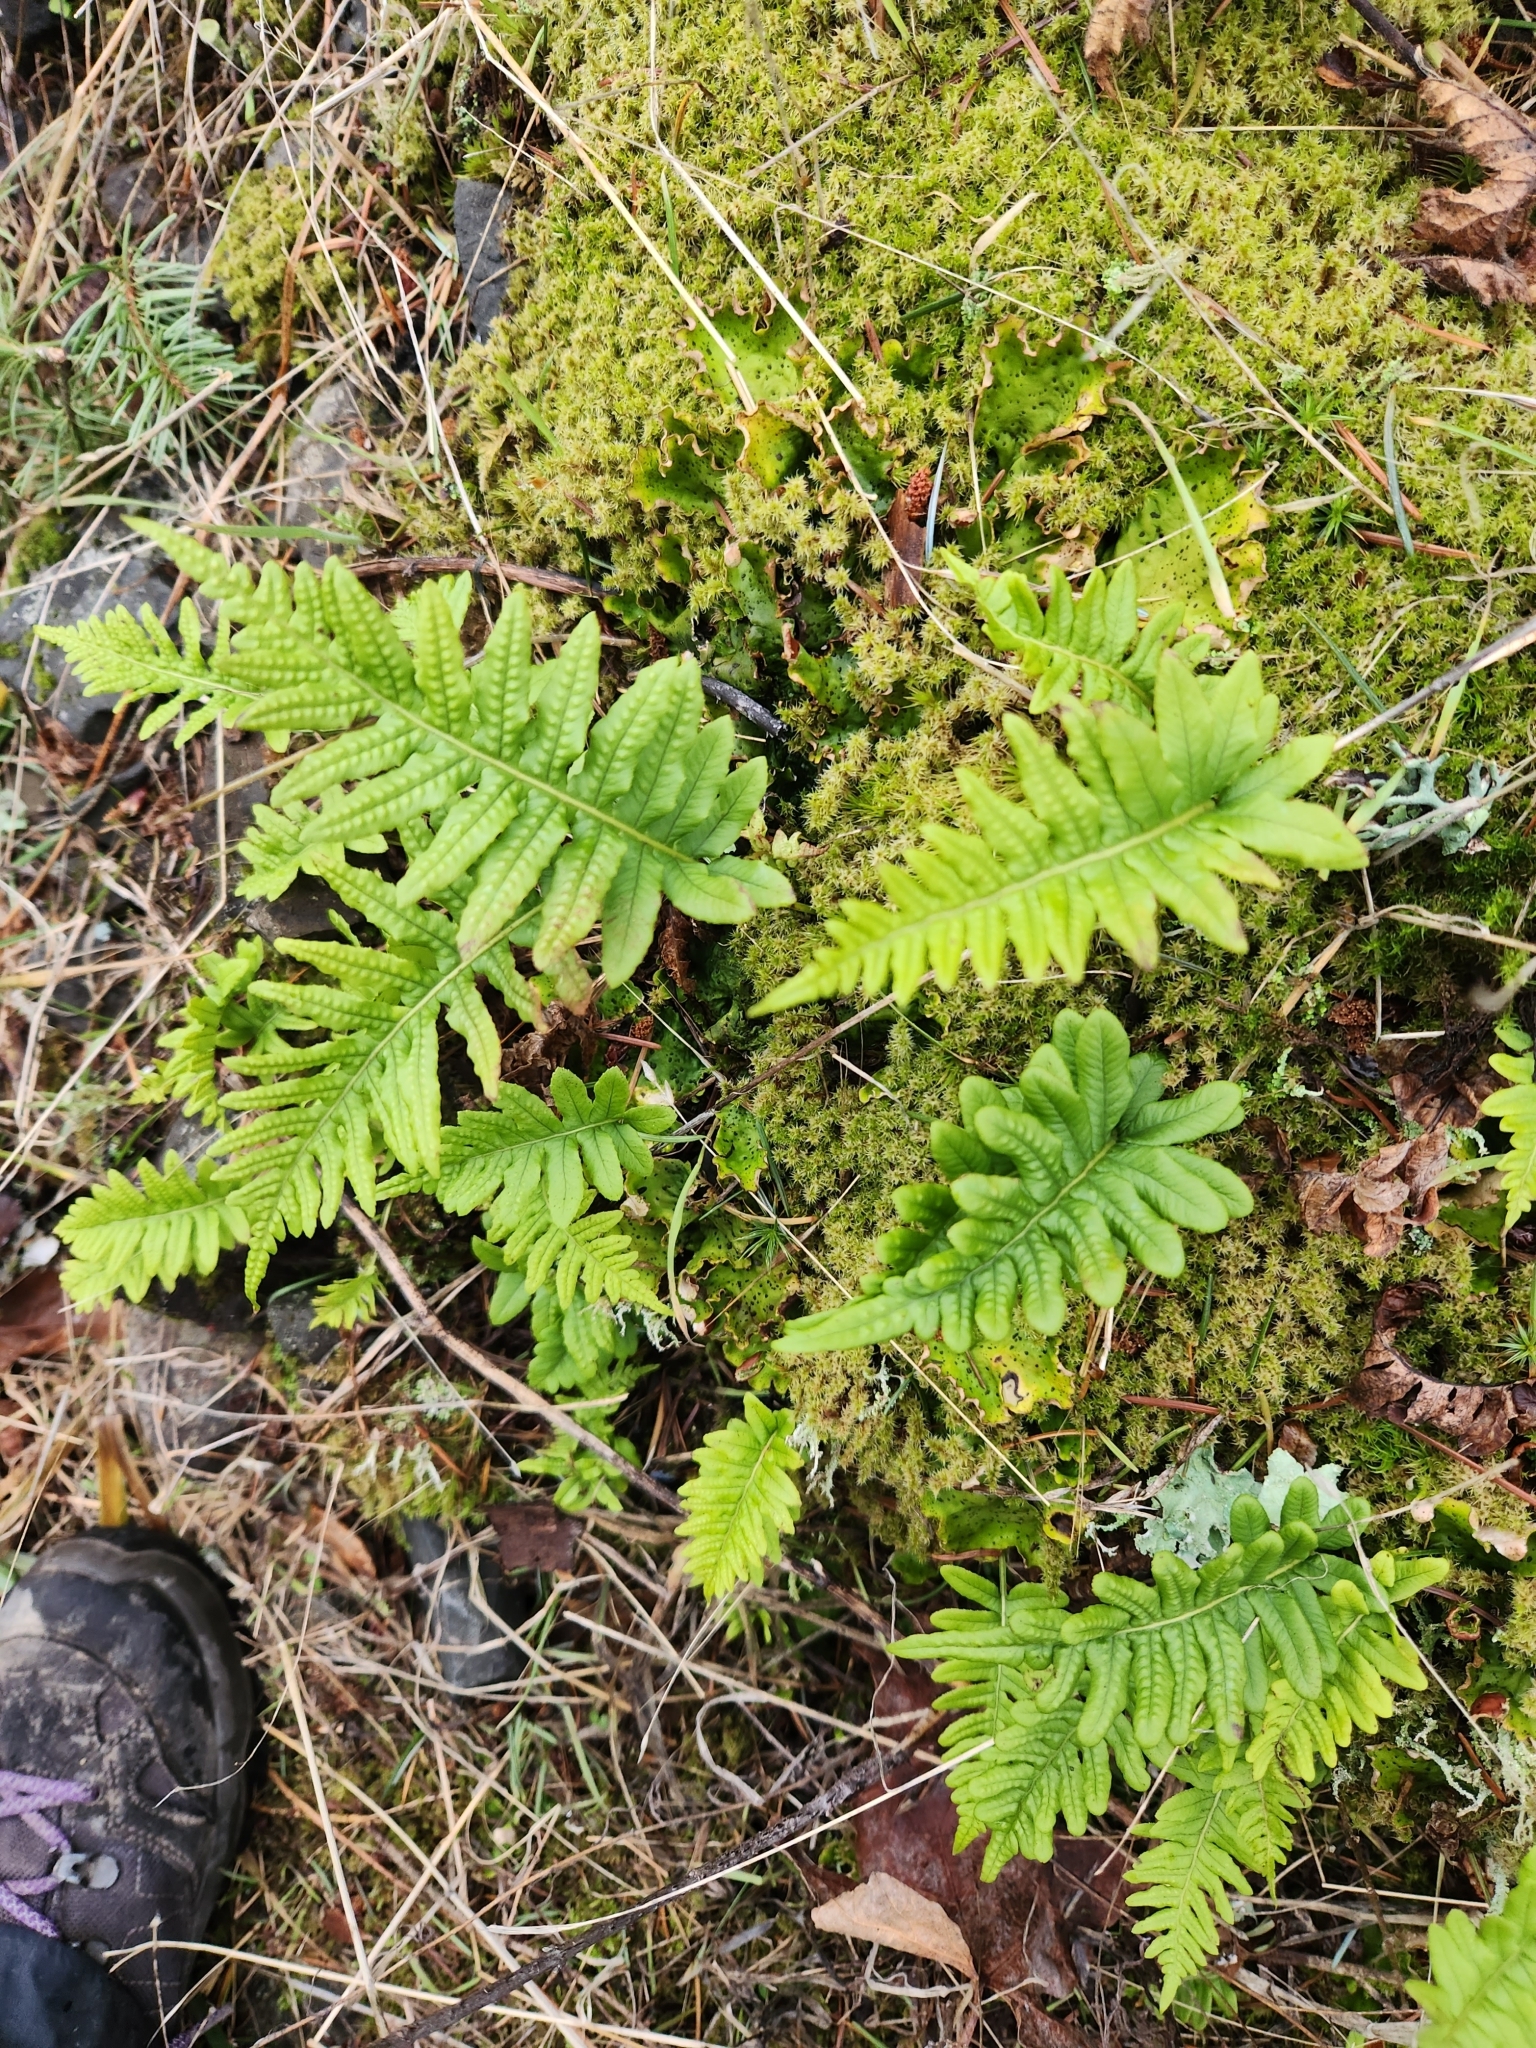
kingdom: Plantae
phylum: Tracheophyta
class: Polypodiopsida
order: Polypodiales
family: Polypodiaceae
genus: Polypodium
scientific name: Polypodium glycyrrhiza
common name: Licorice fern
